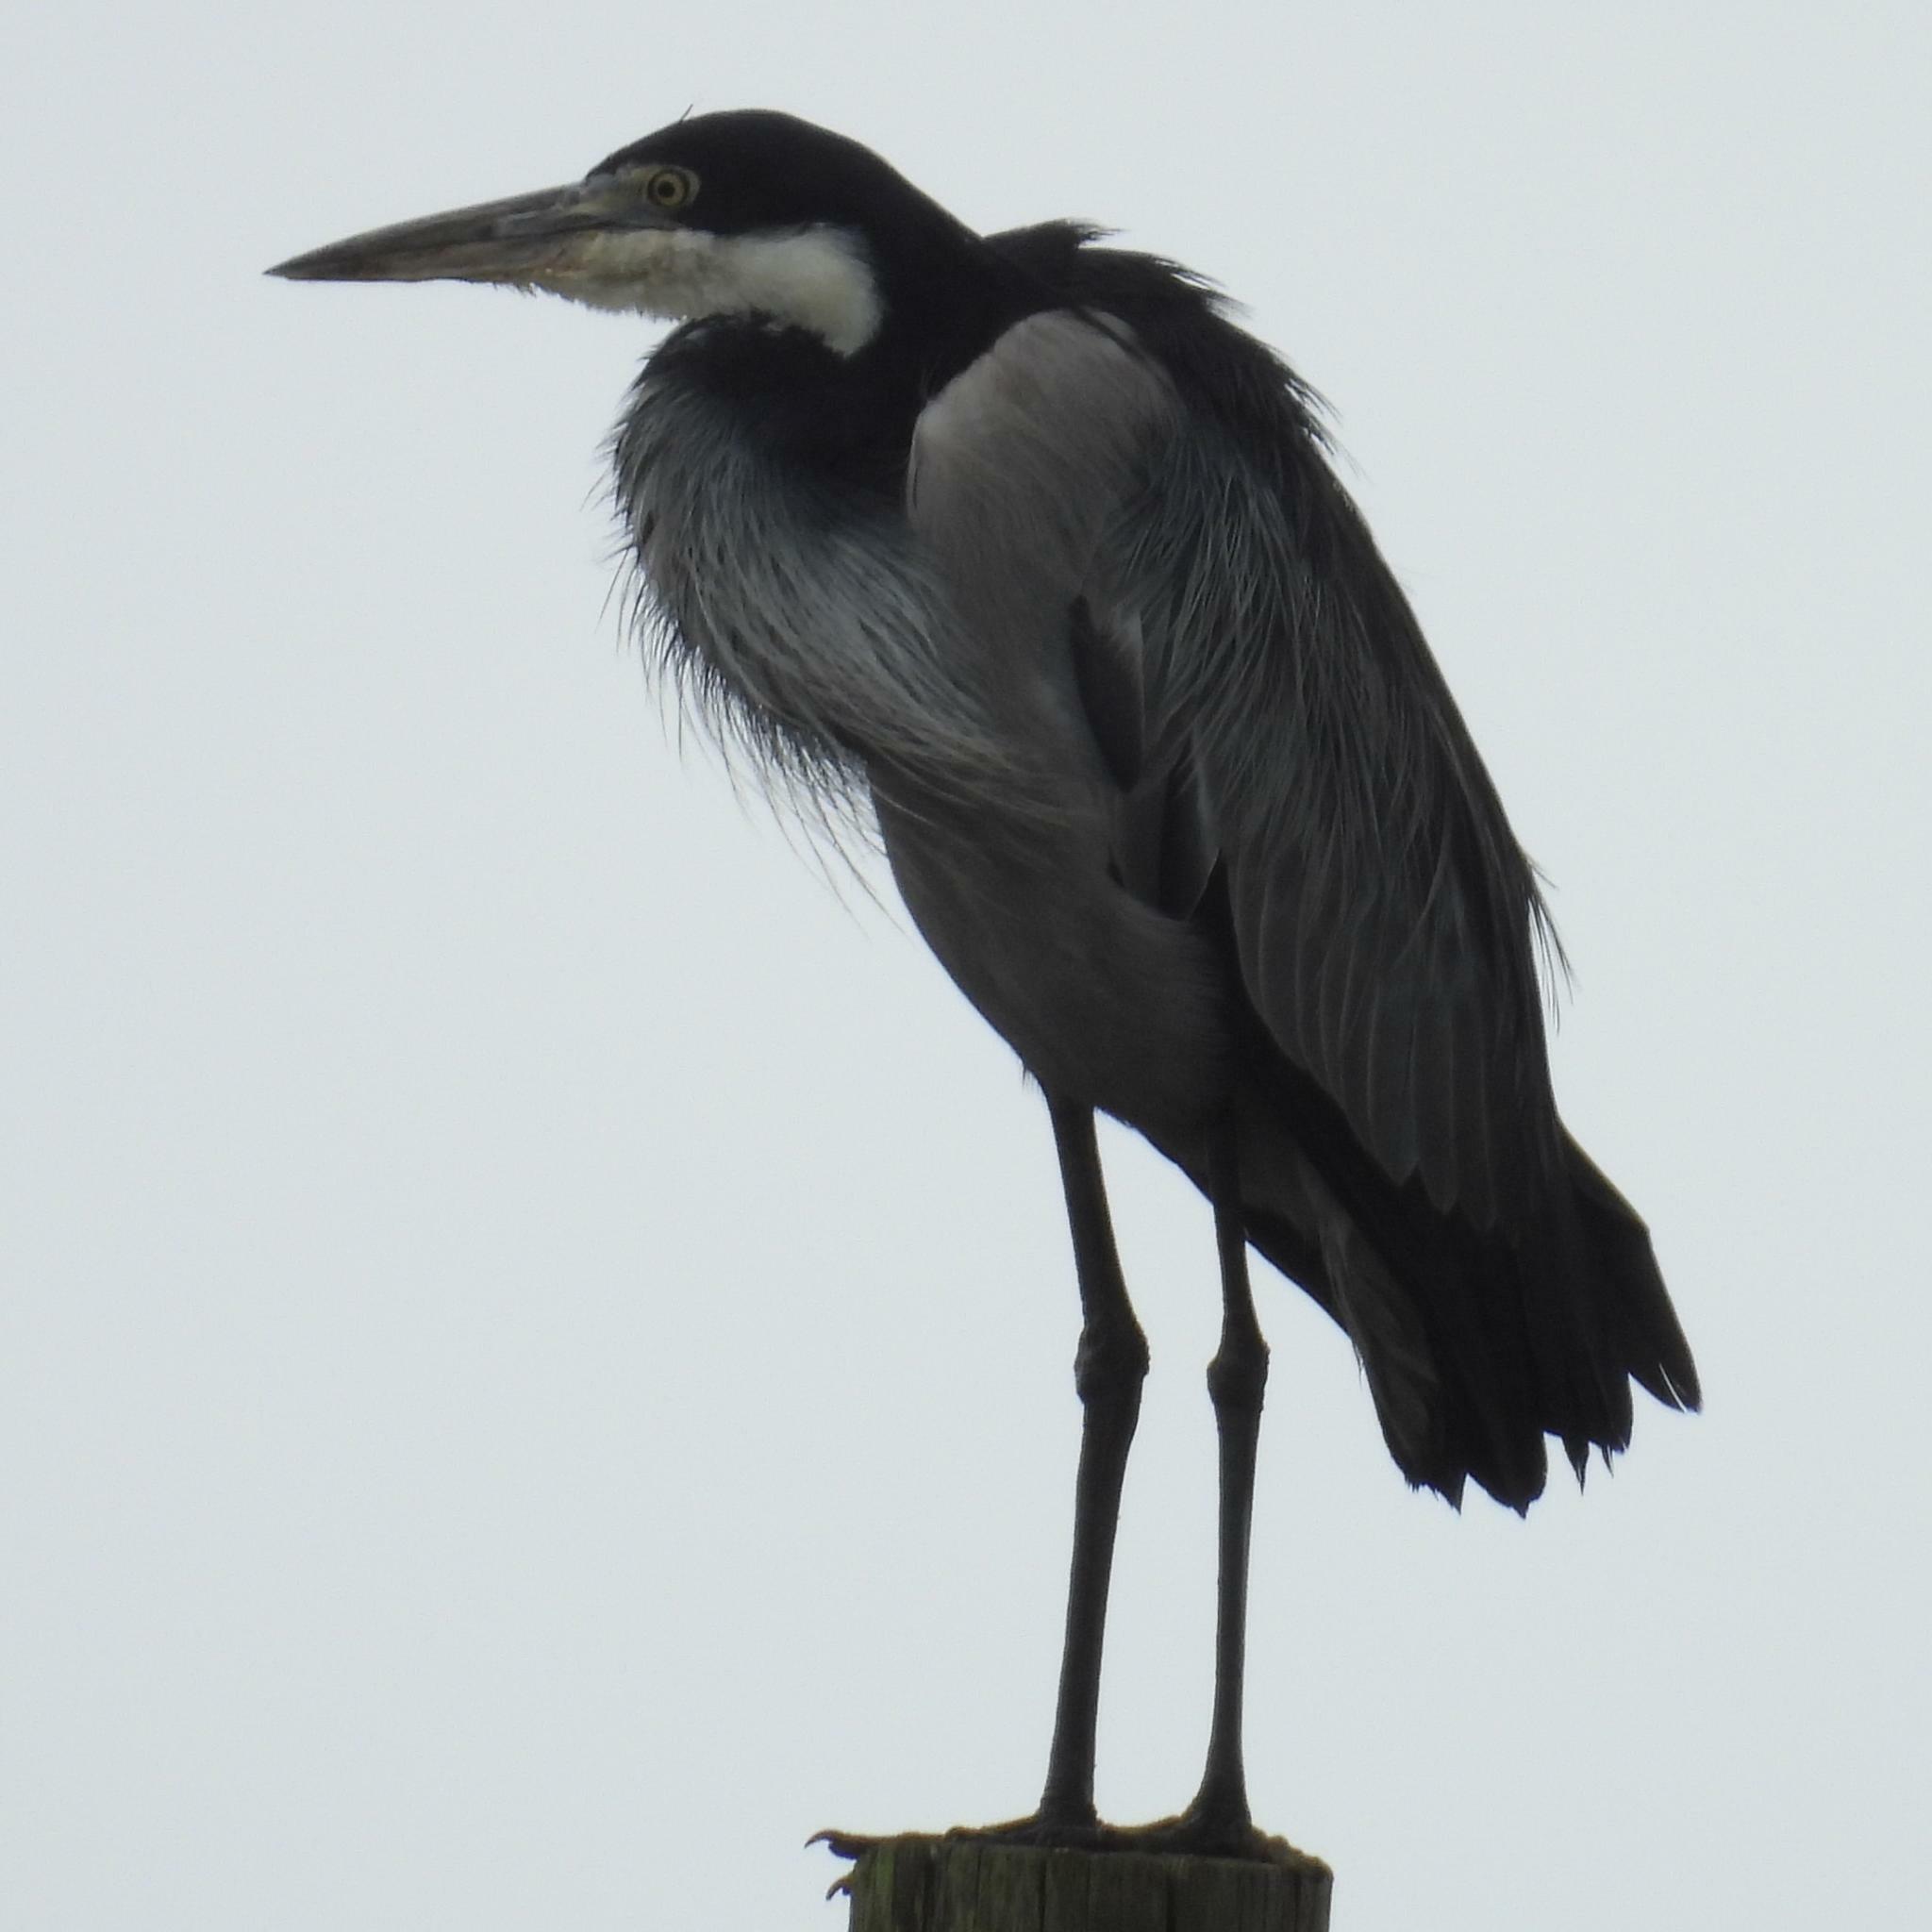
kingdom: Animalia
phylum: Chordata
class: Aves
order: Pelecaniformes
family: Ardeidae
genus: Ardea
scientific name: Ardea melanocephala
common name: Black-headed heron
